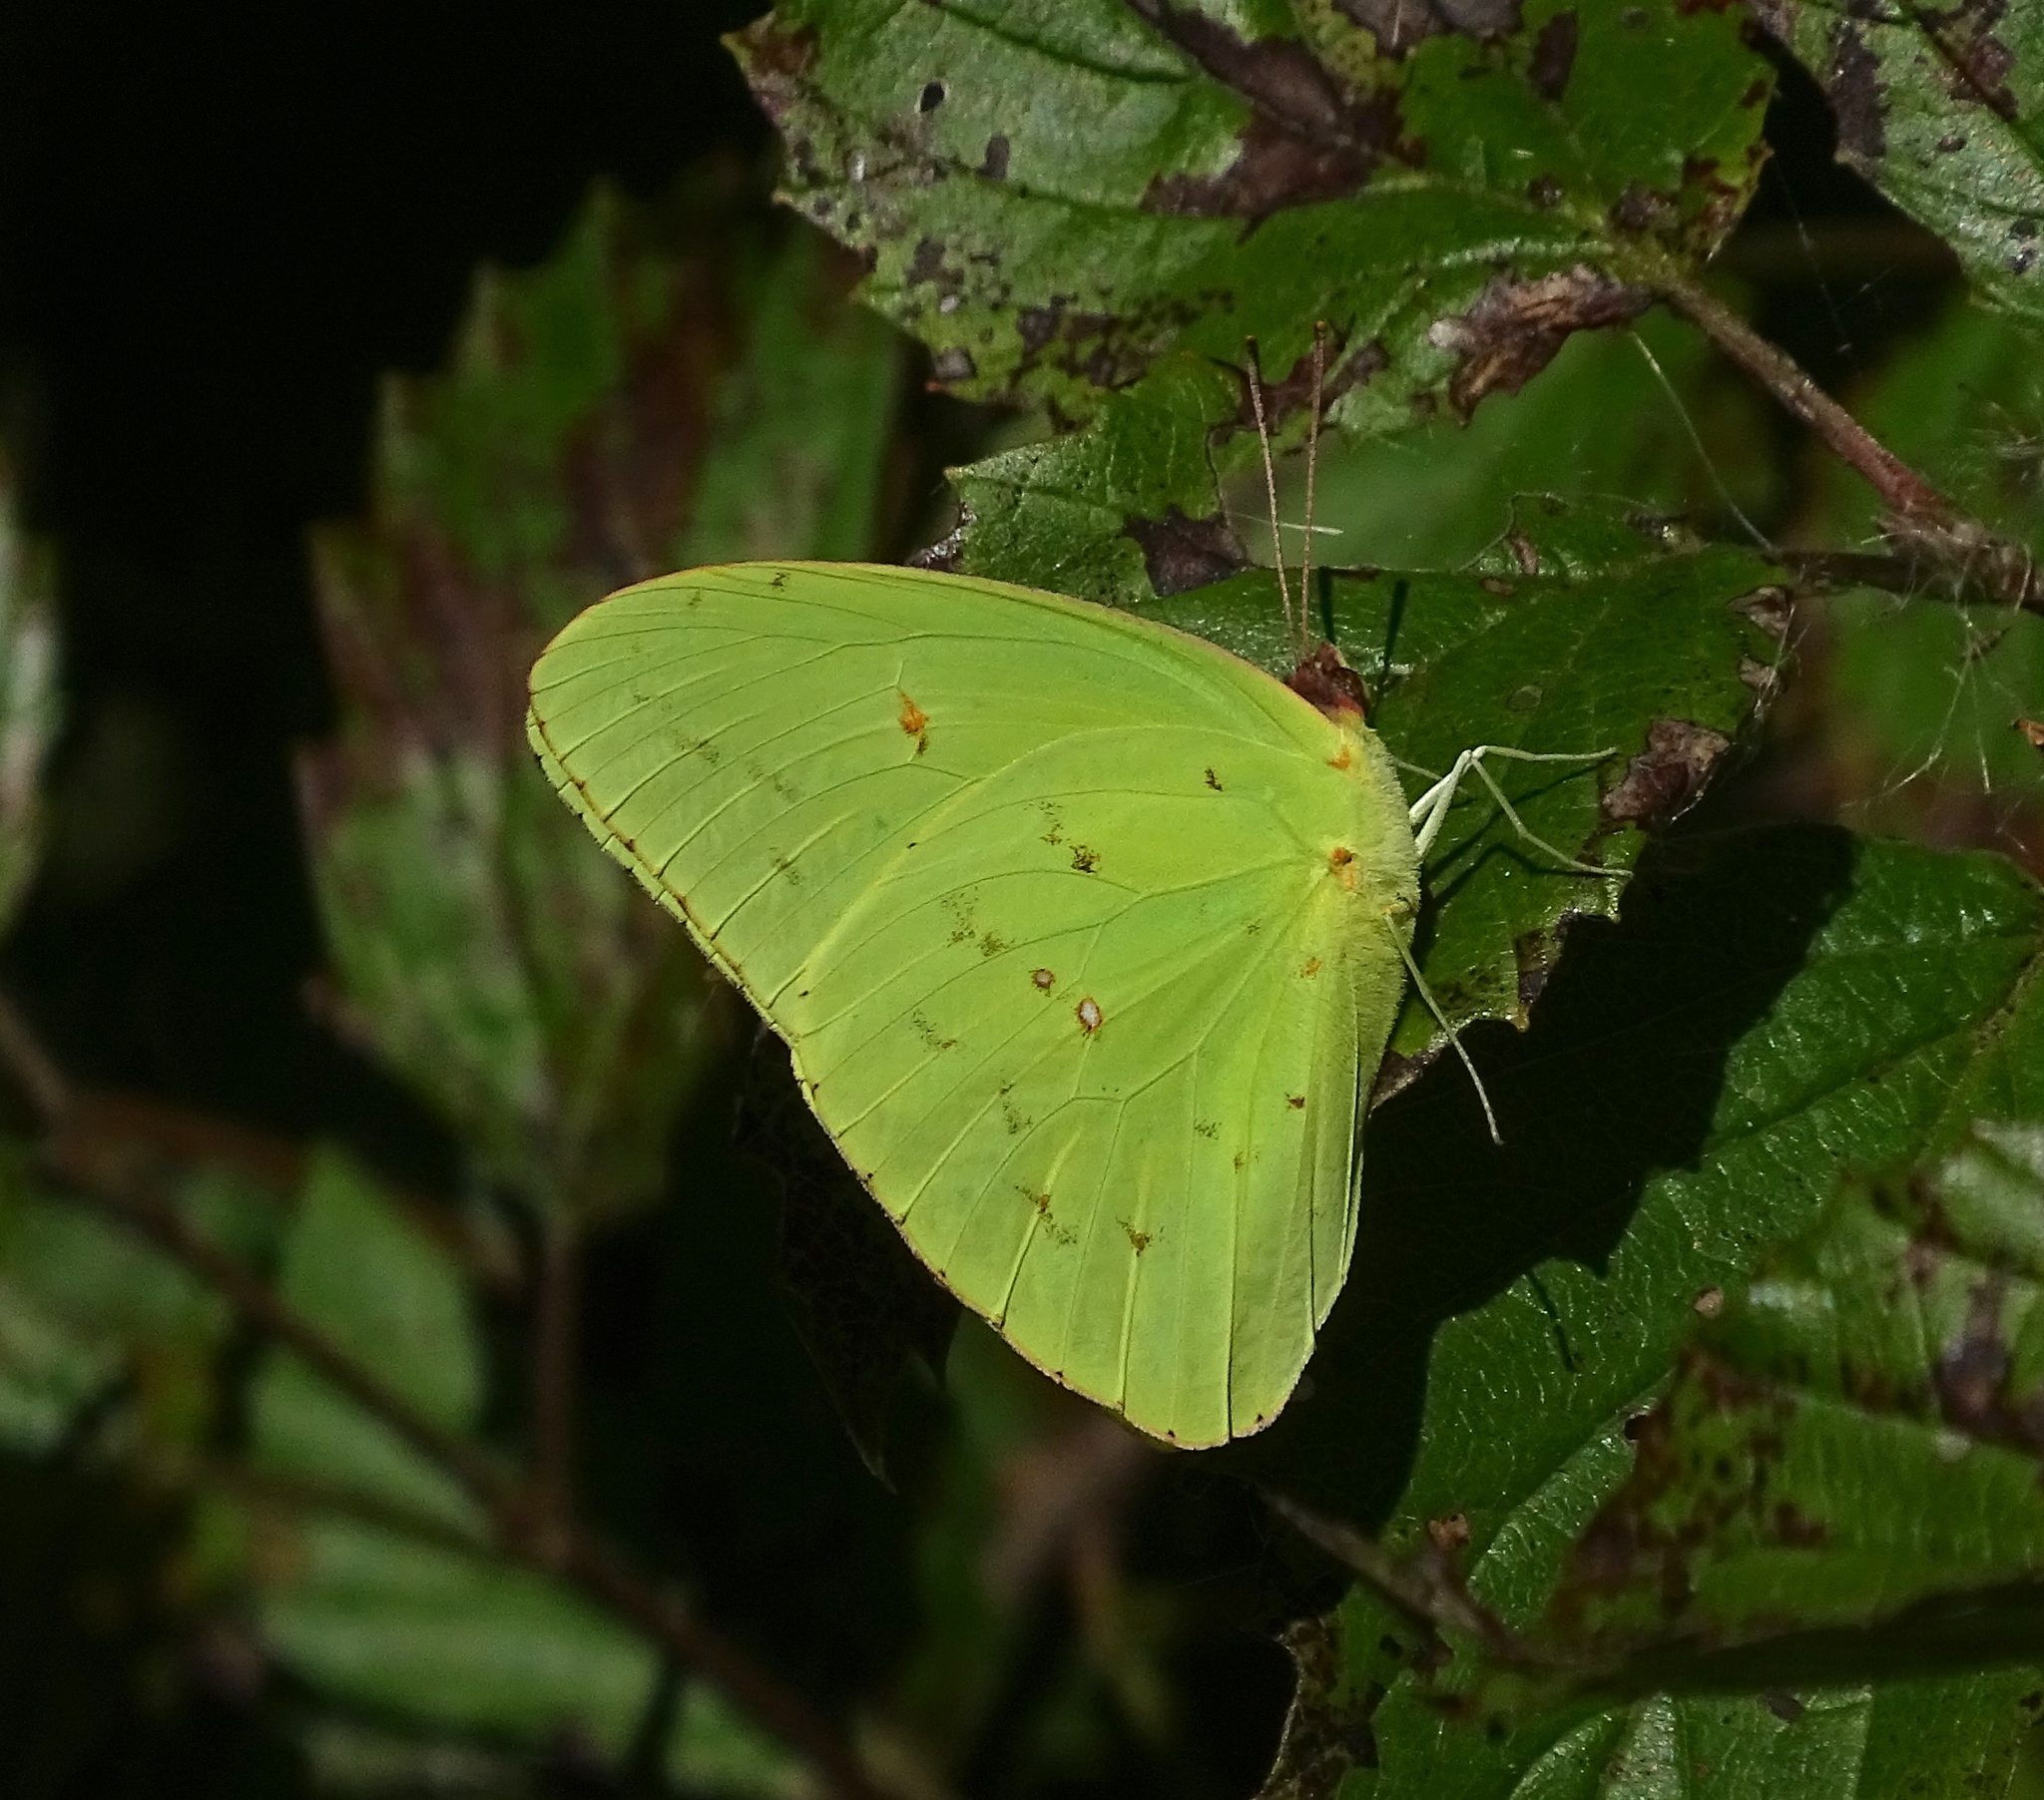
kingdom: Animalia
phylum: Arthropoda
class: Insecta
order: Lepidoptera
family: Pieridae
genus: Phoebis
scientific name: Phoebis sennae
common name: Cloudless sulphur
